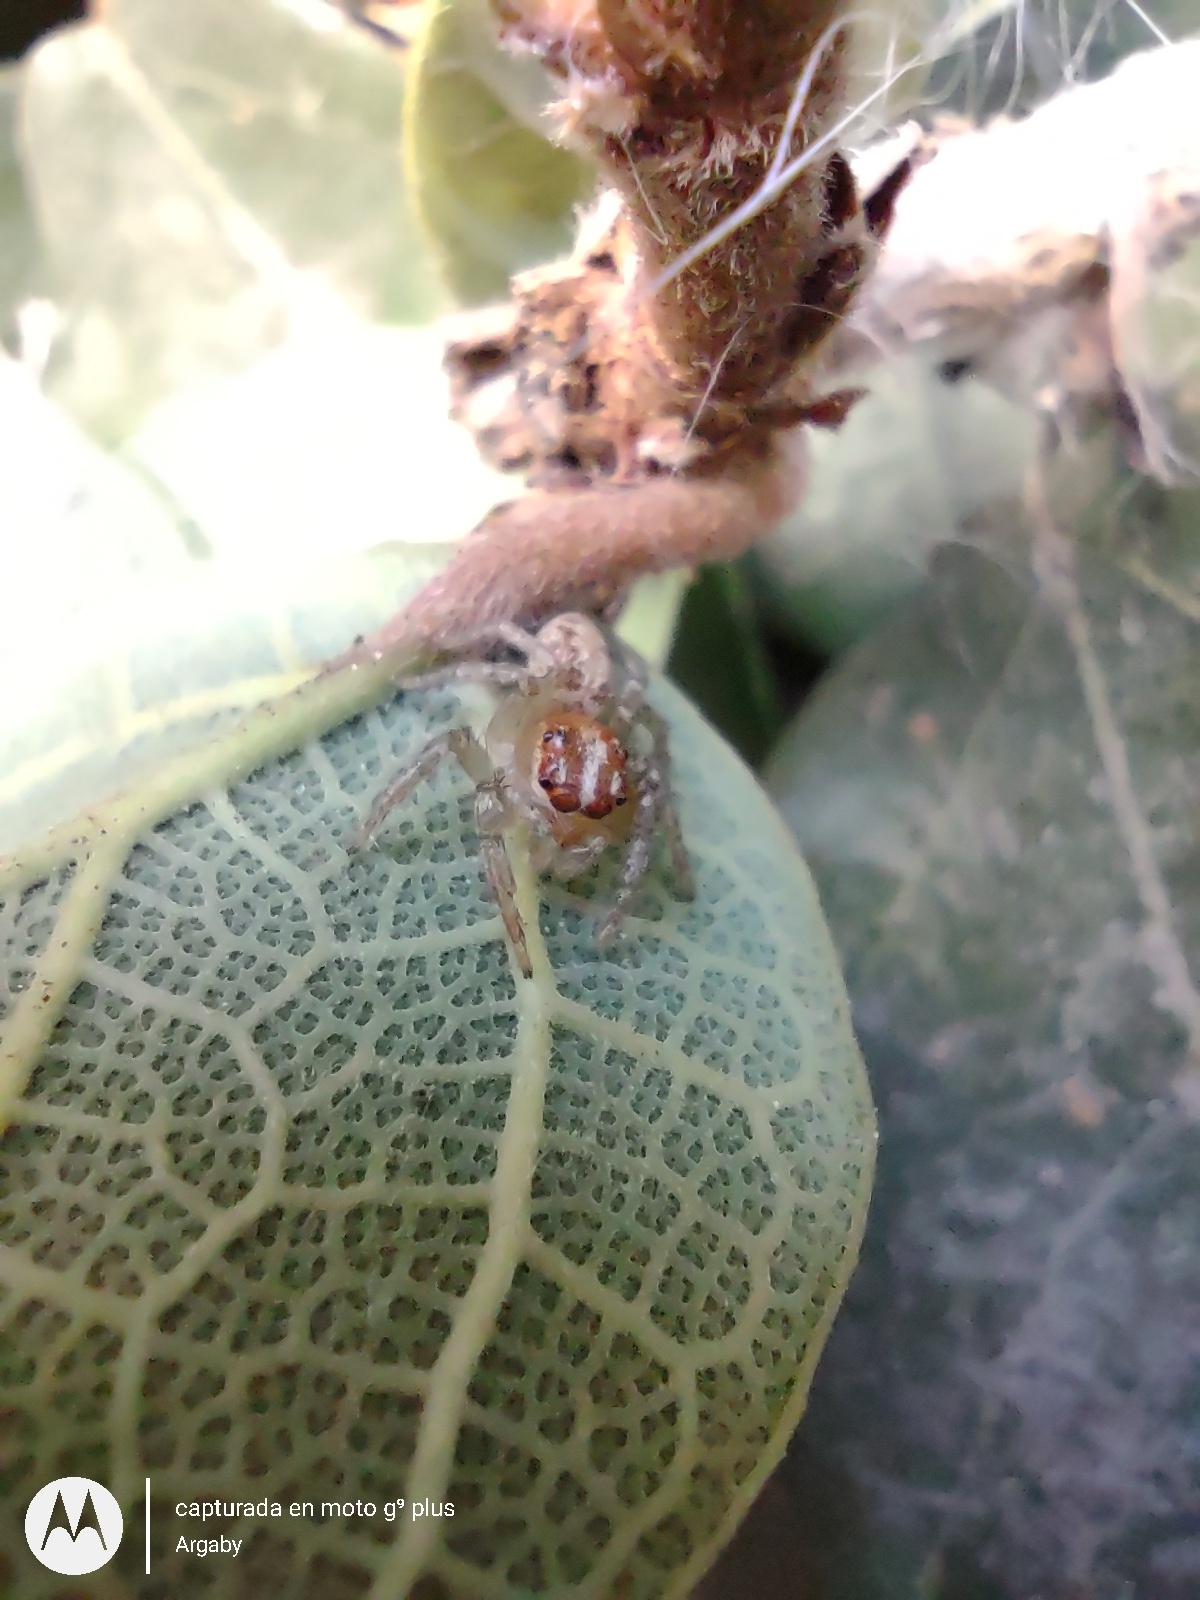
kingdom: Animalia
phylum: Arthropoda
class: Arachnida
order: Araneae
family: Salticidae
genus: Chira
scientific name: Chira gounellei
